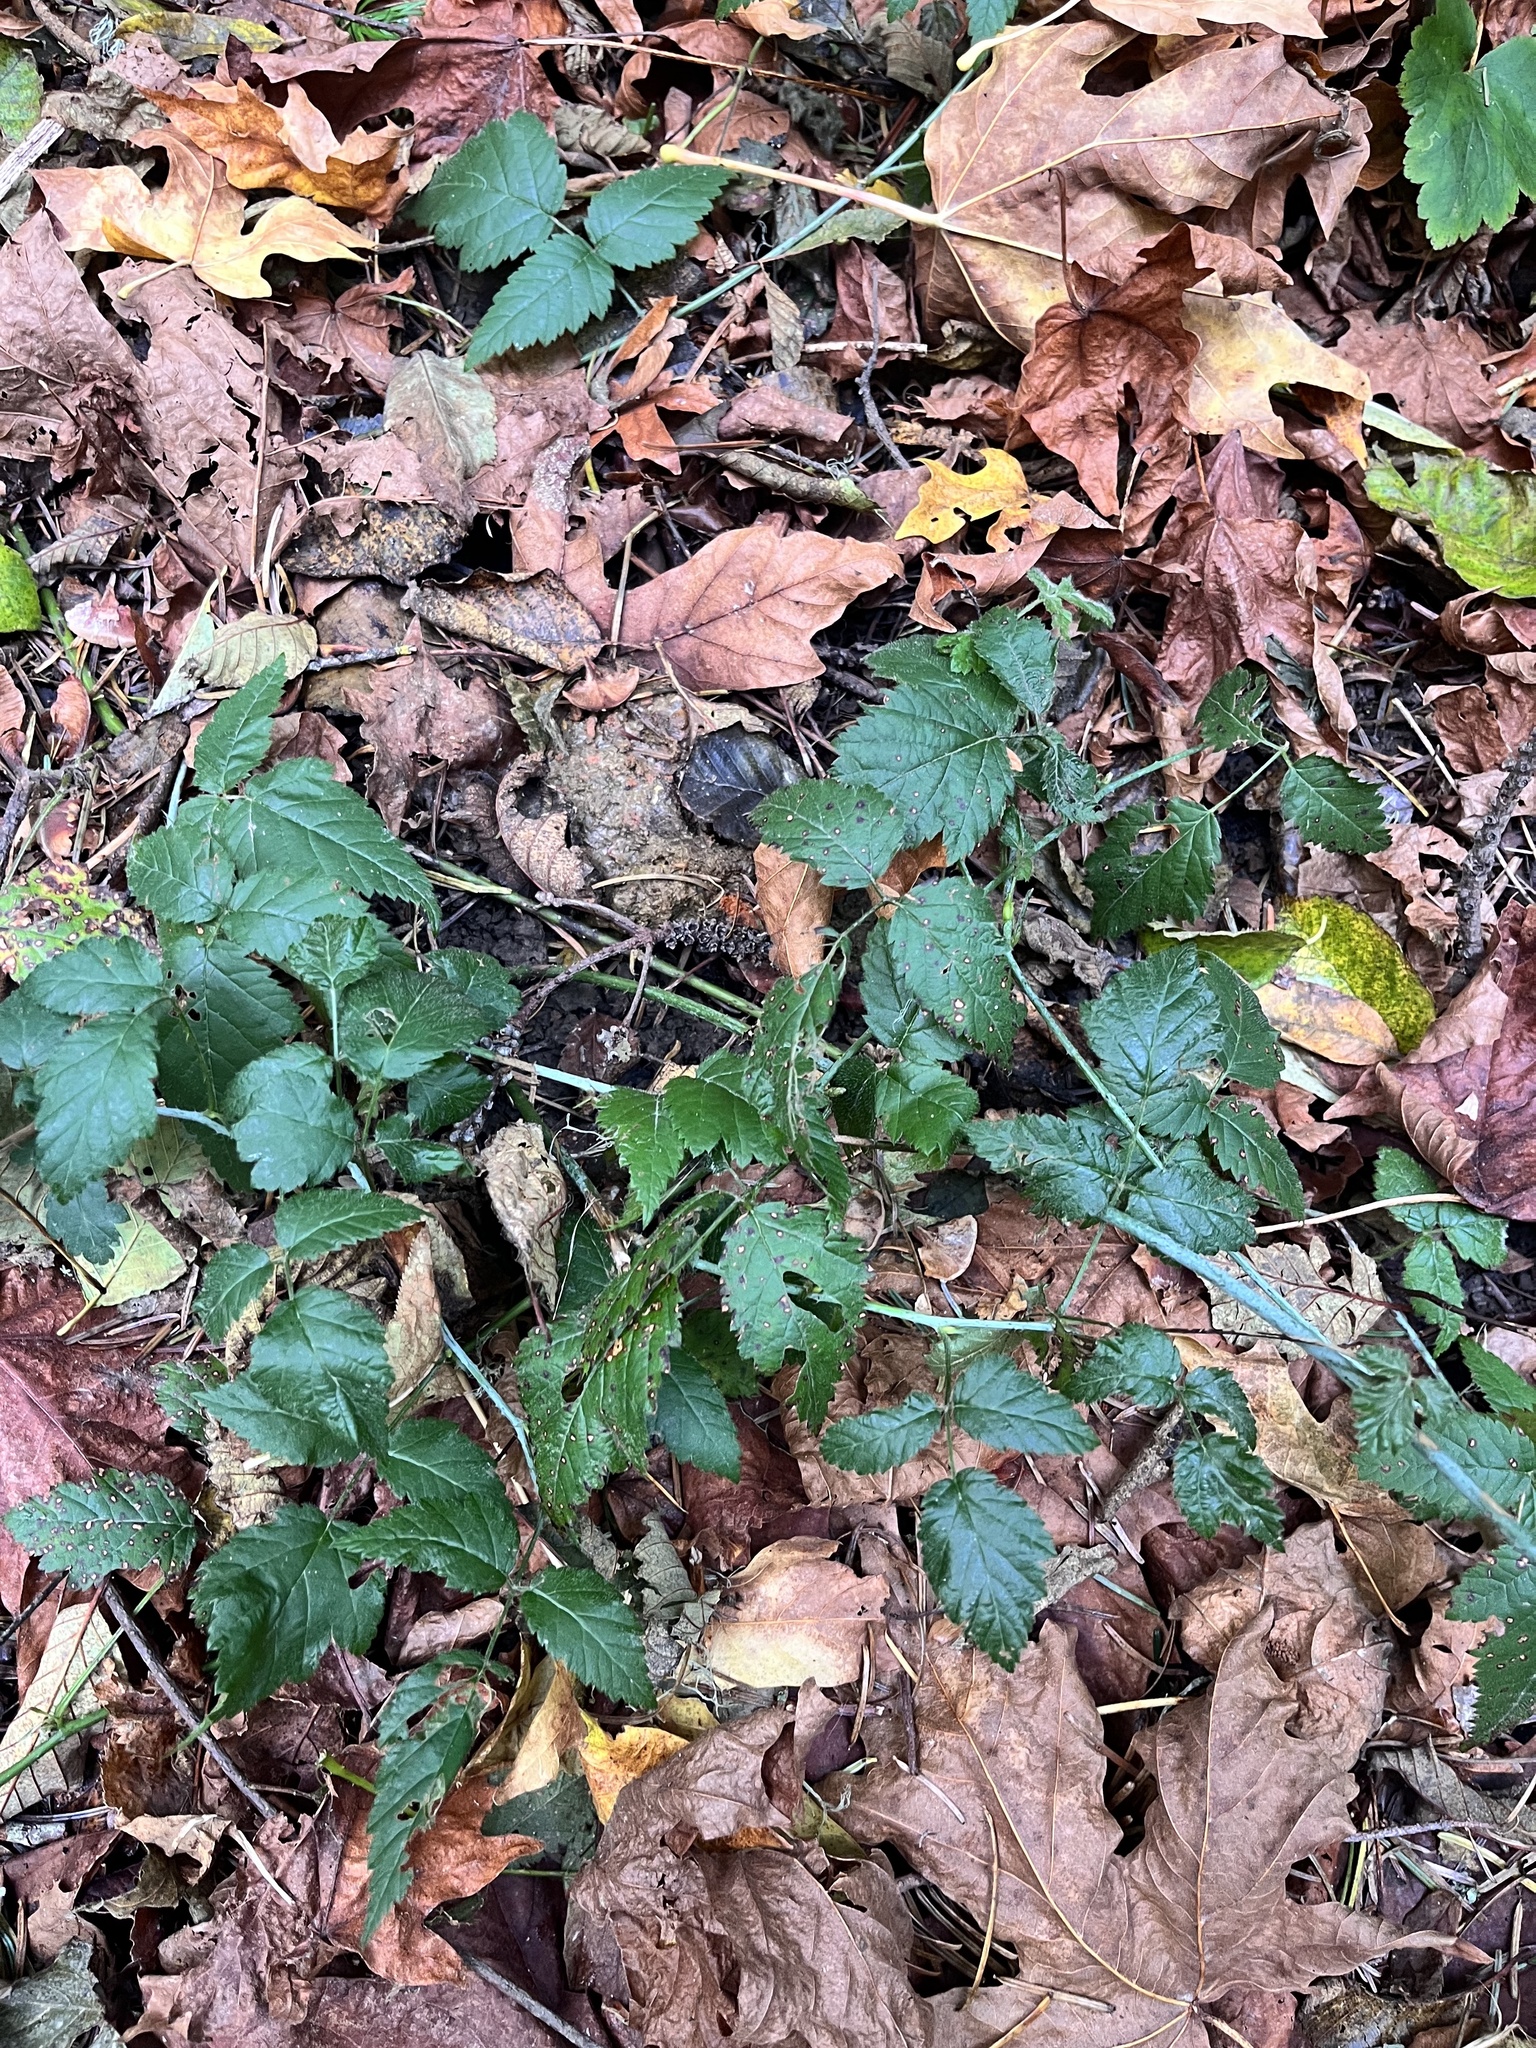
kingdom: Plantae
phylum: Tracheophyta
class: Magnoliopsida
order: Rosales
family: Rosaceae
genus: Rubus
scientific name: Rubus ursinus
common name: Pacific blackberry
